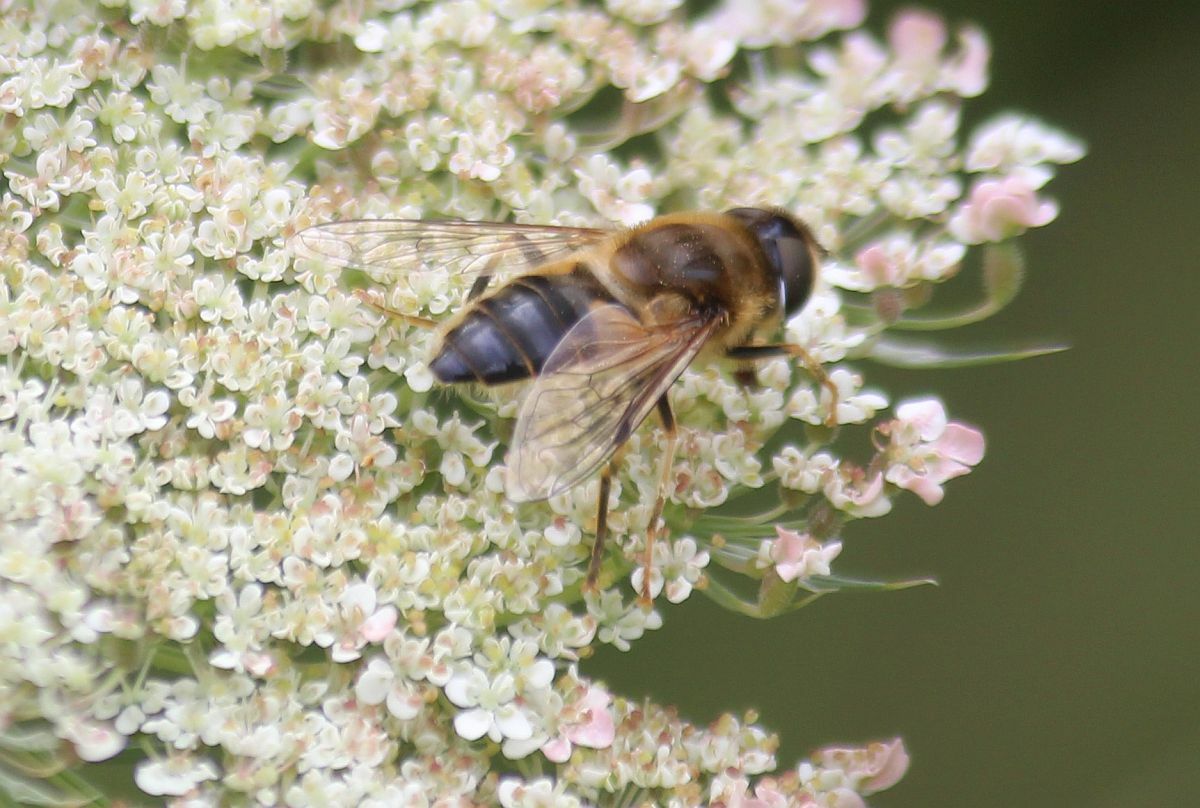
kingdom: Animalia
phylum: Arthropoda
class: Insecta
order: Diptera
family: Syrphidae
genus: Eristalis
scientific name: Eristalis pertinax
